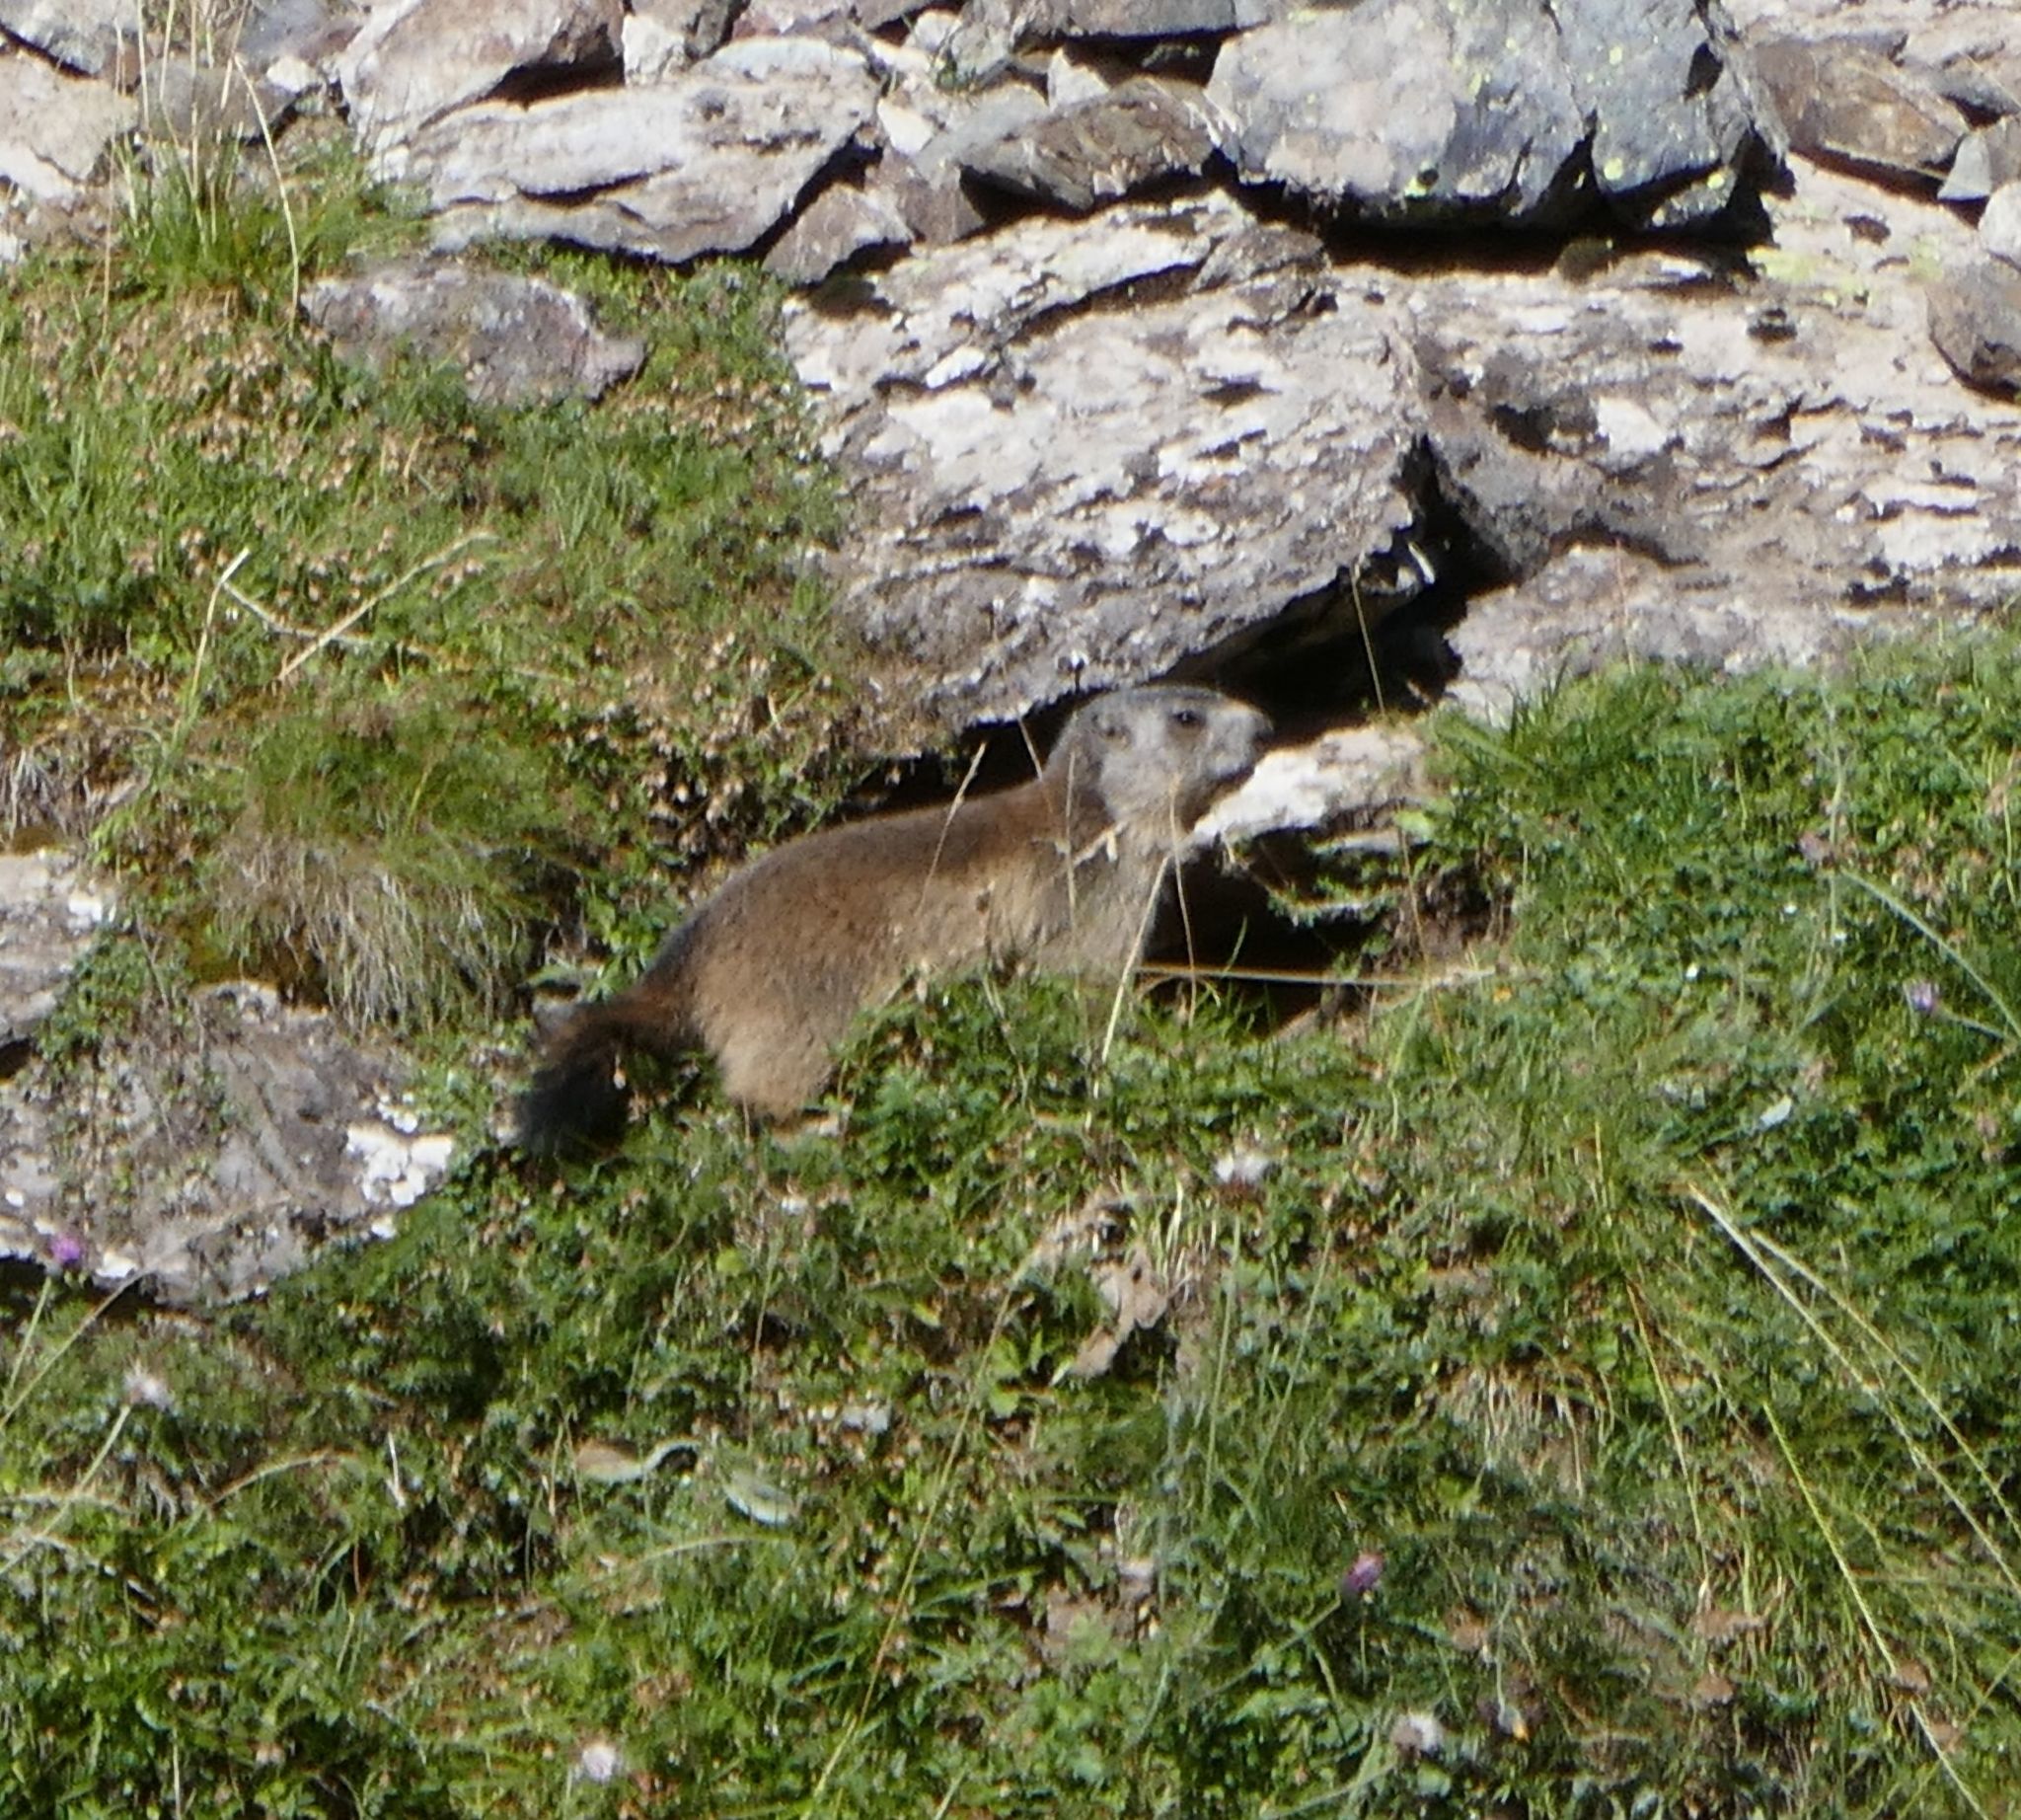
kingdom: Animalia
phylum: Chordata
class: Mammalia
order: Rodentia
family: Sciuridae
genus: Marmota
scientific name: Marmota marmota
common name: Alpine marmot
